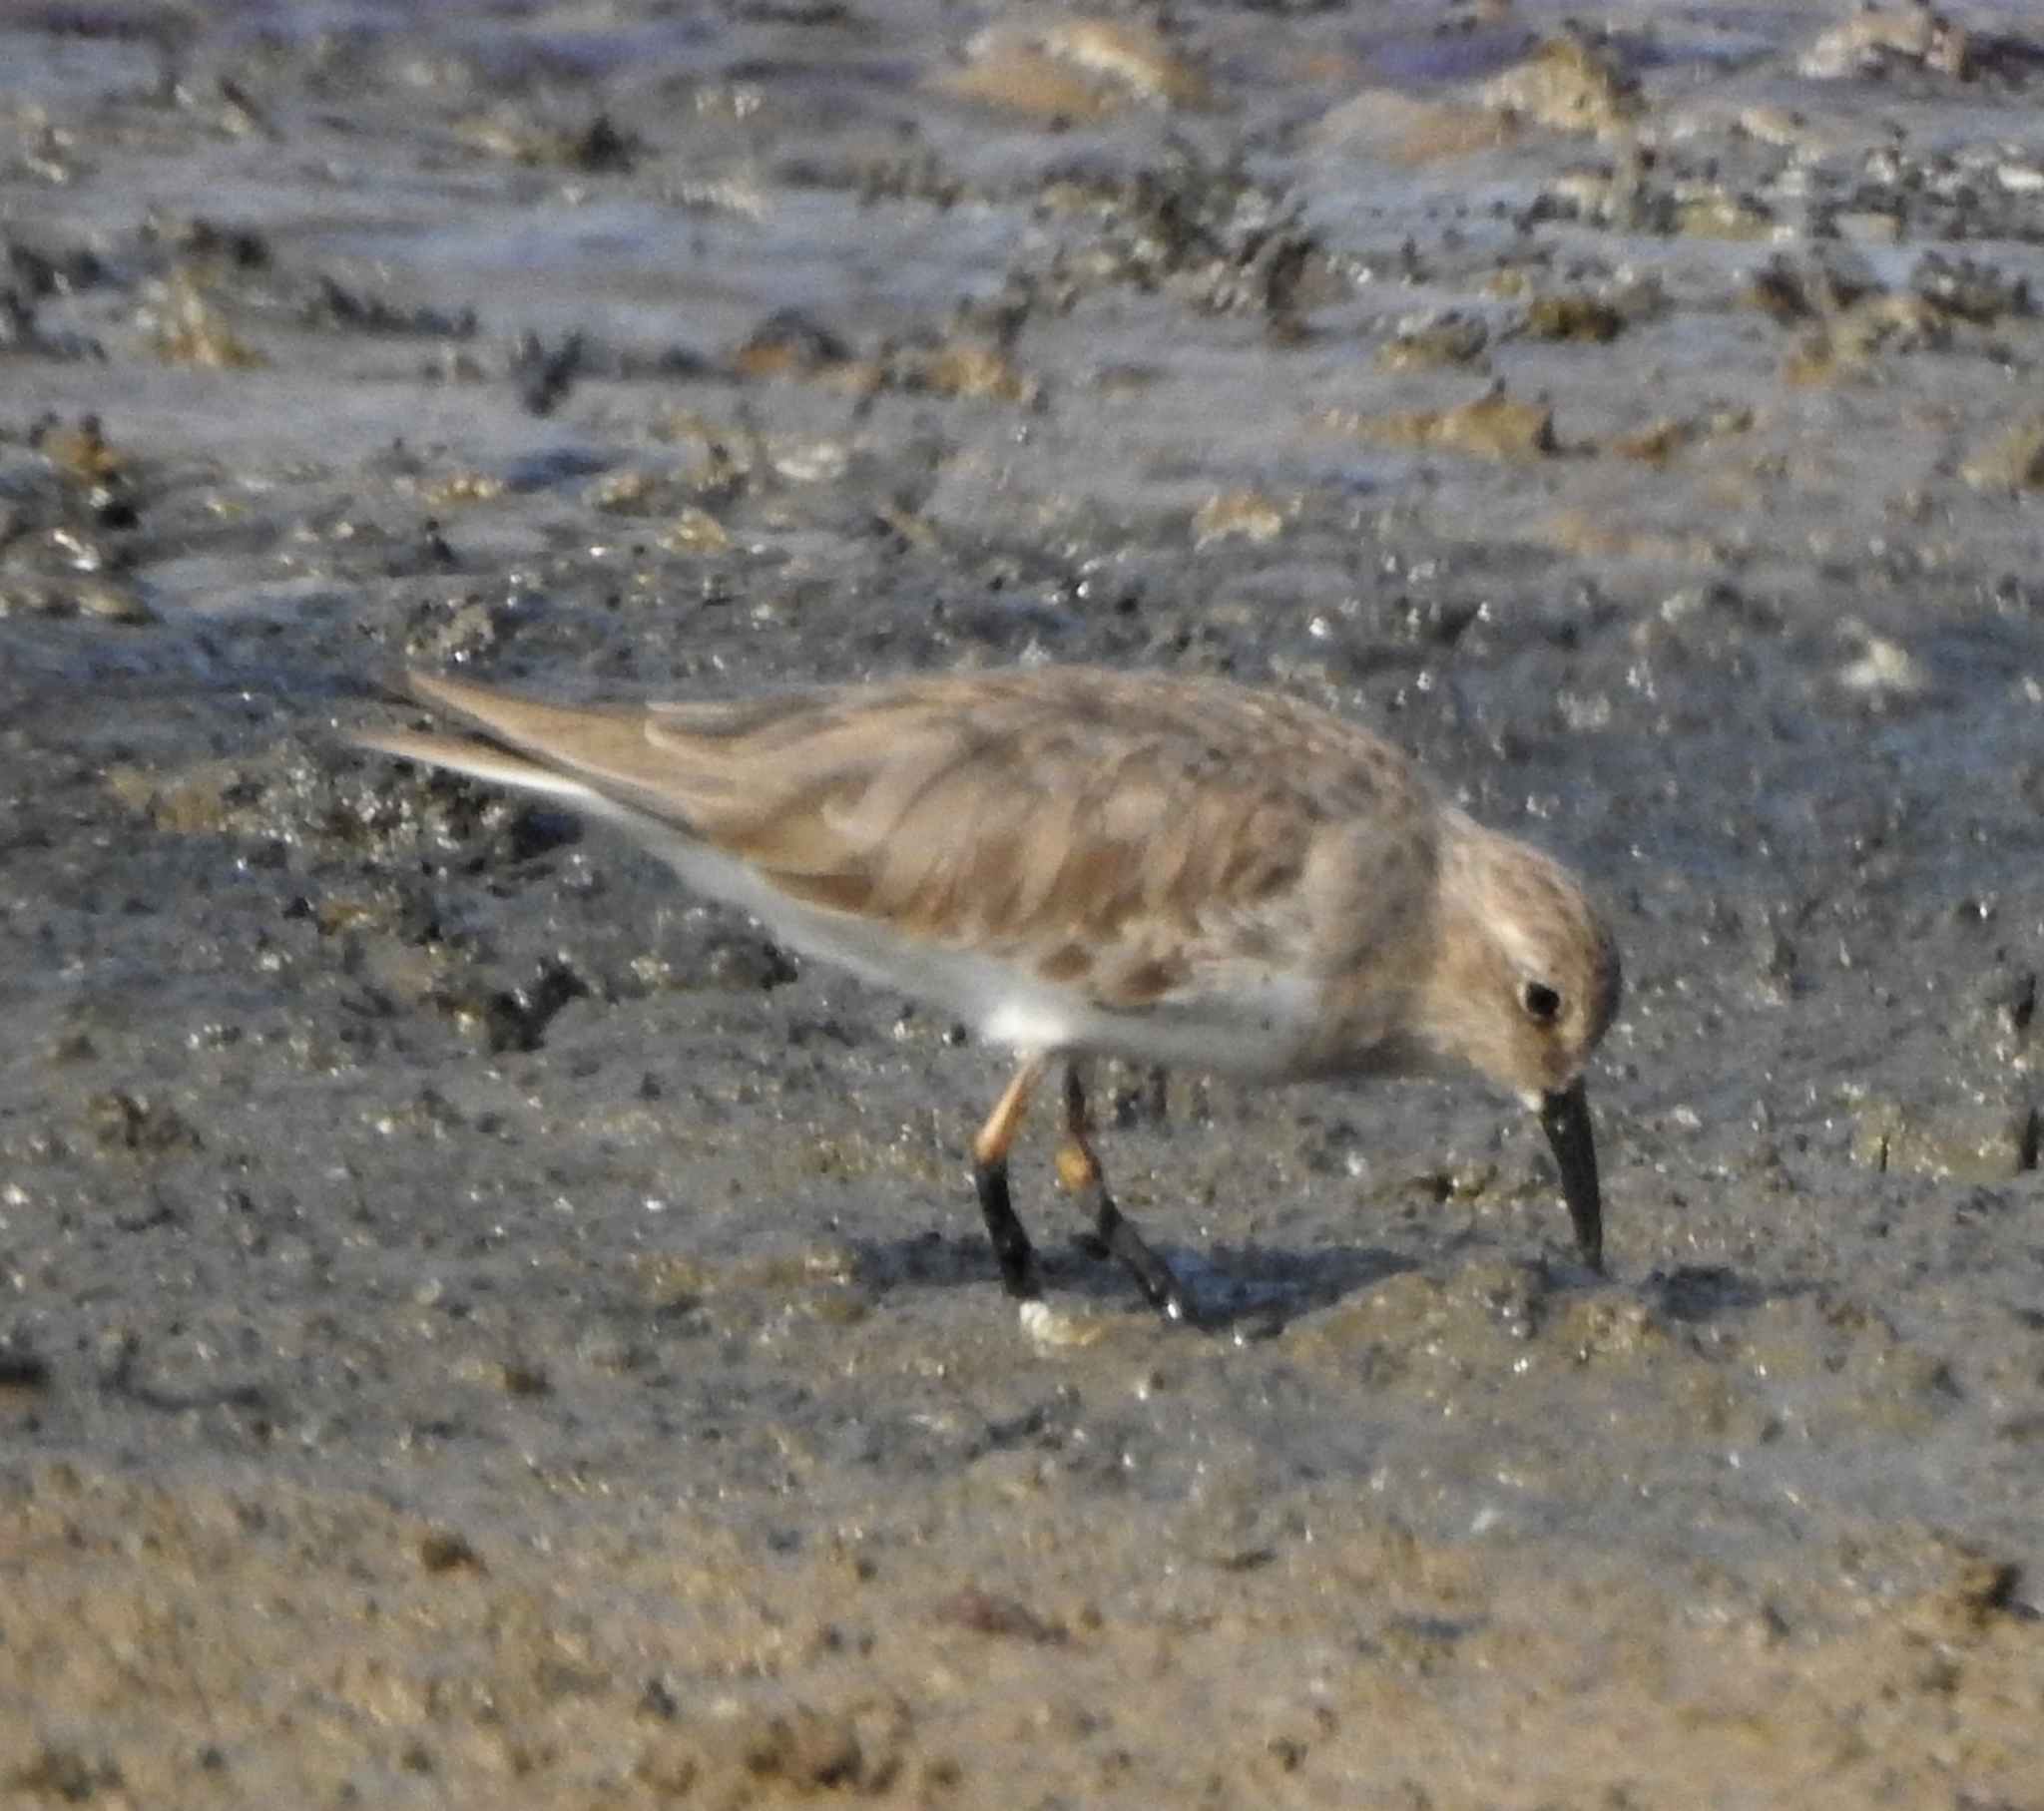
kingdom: Animalia
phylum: Chordata
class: Aves
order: Charadriiformes
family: Scolopacidae
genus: Calidris
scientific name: Calidris temminckii
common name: Temminck's stint
